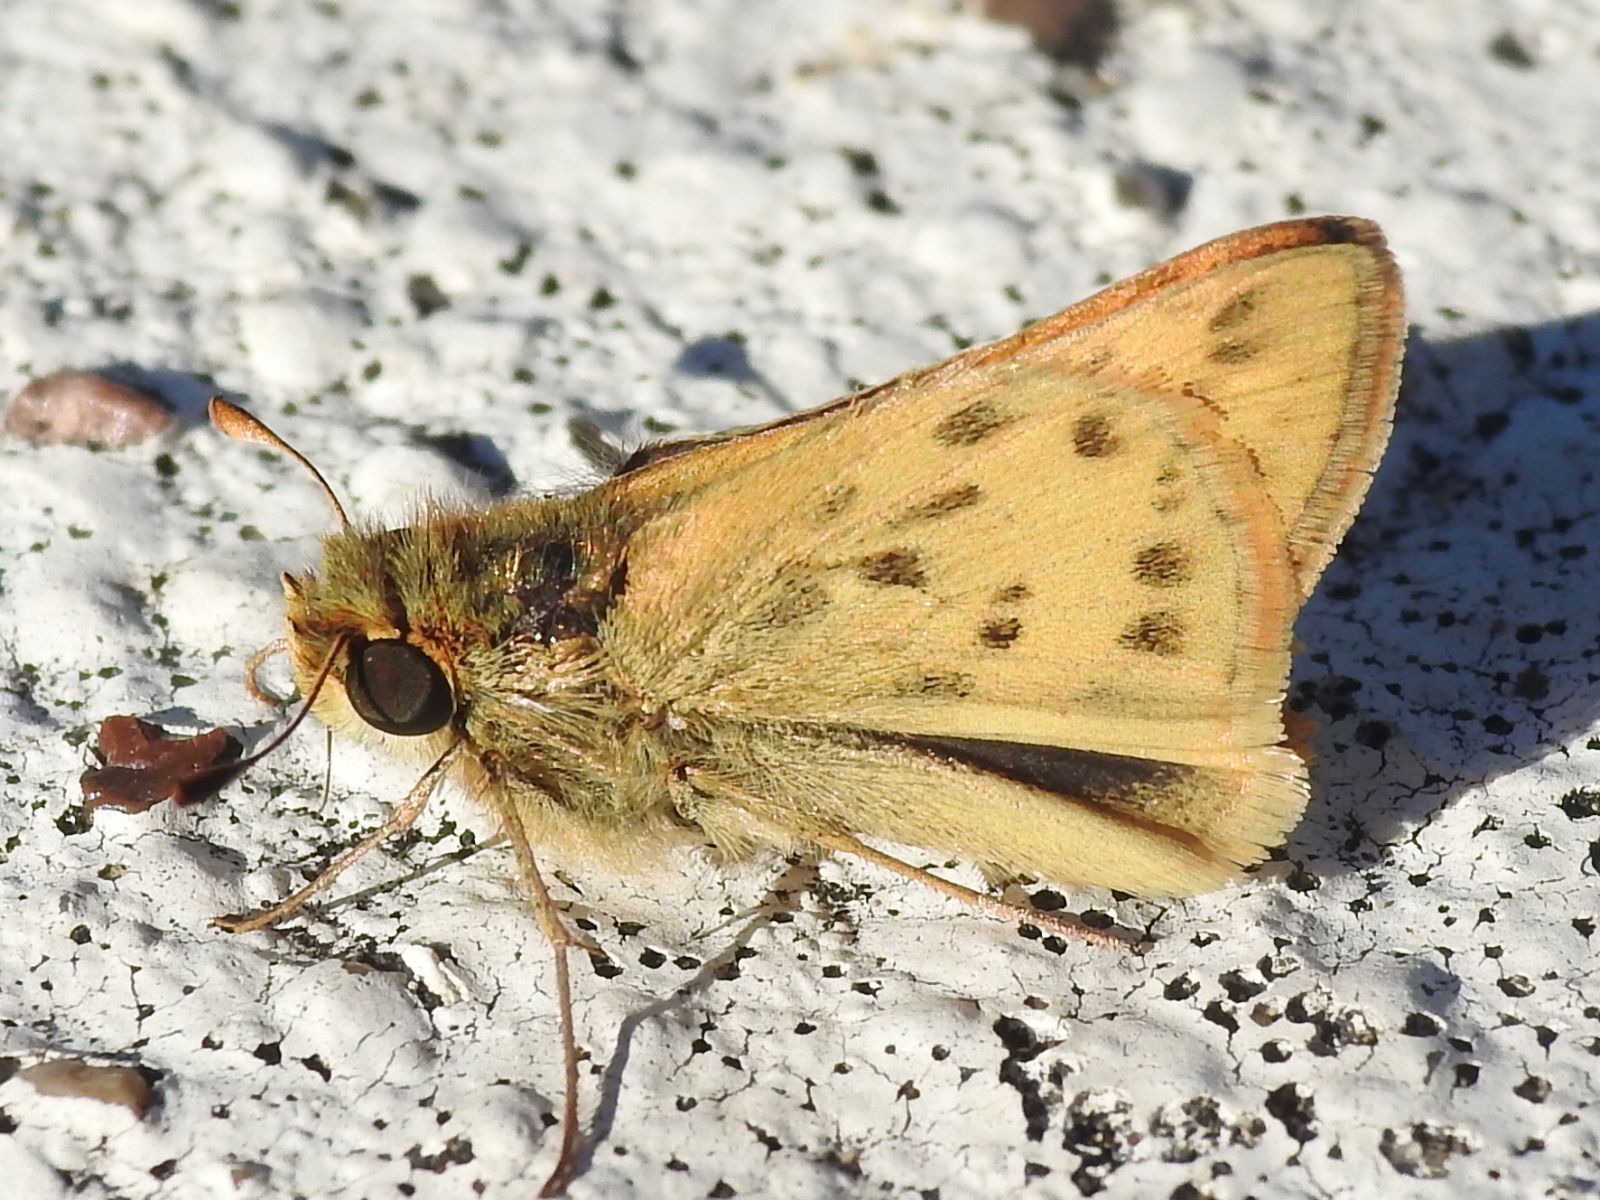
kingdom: Animalia
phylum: Arthropoda
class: Insecta
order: Lepidoptera
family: Hesperiidae
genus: Hylephila
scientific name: Hylephila phyleus
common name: Fiery skipper
